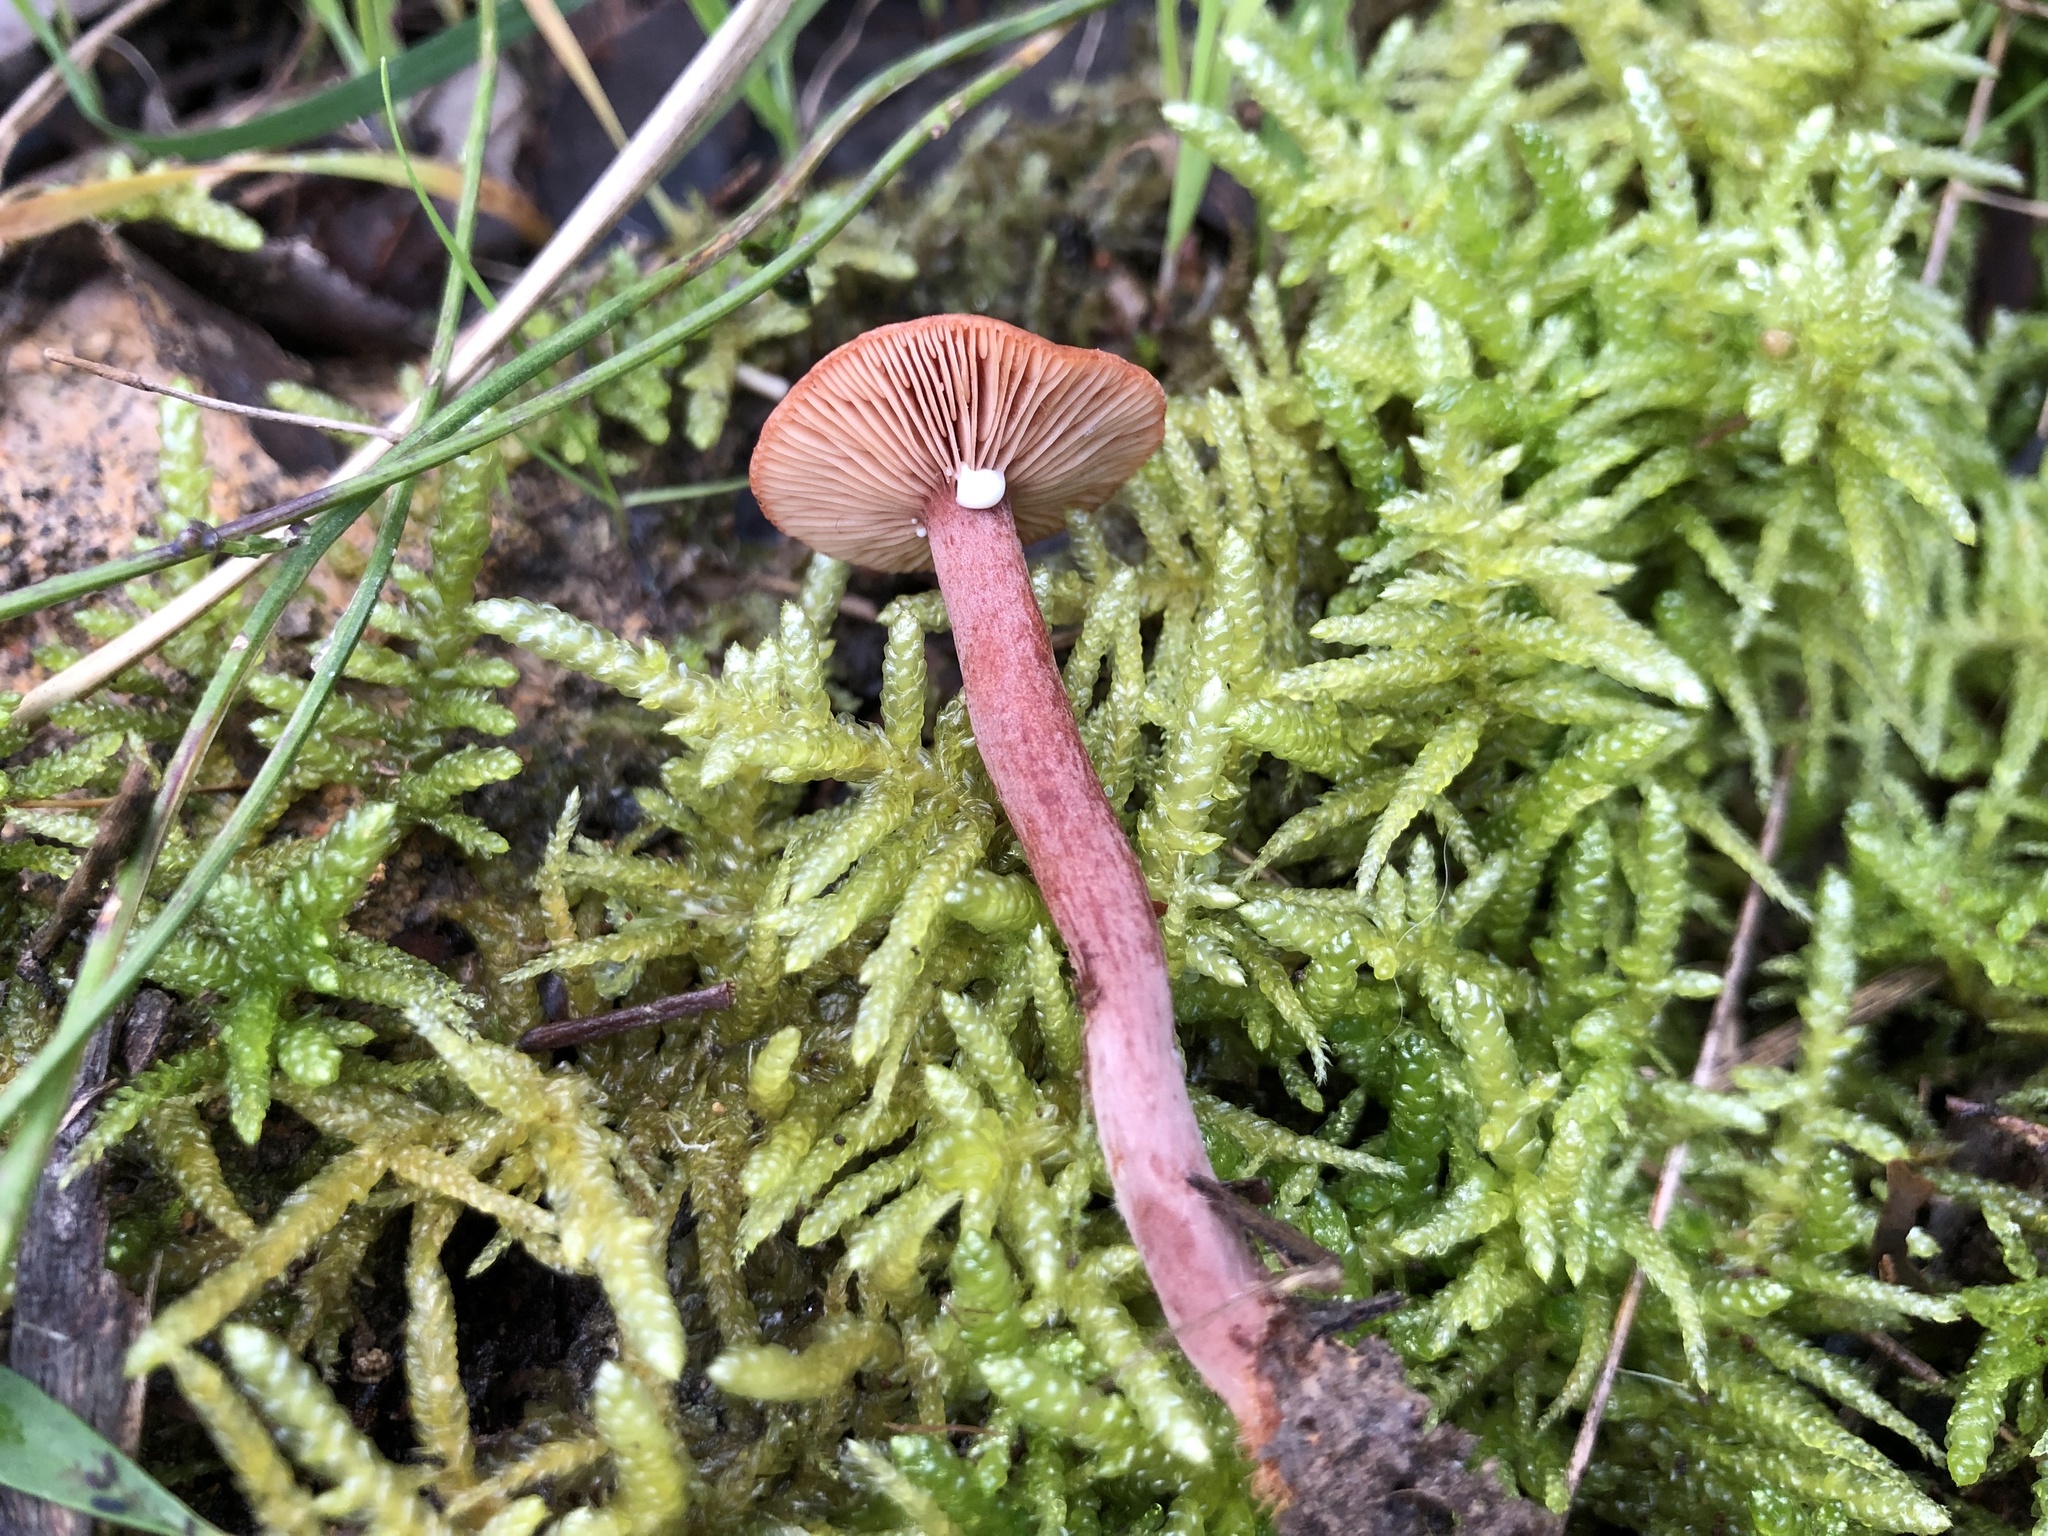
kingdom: Fungi
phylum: Basidiomycota
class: Agaricomycetes
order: Russulales
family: Russulaceae
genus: Lactarius
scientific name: Lactarius eucalypti
